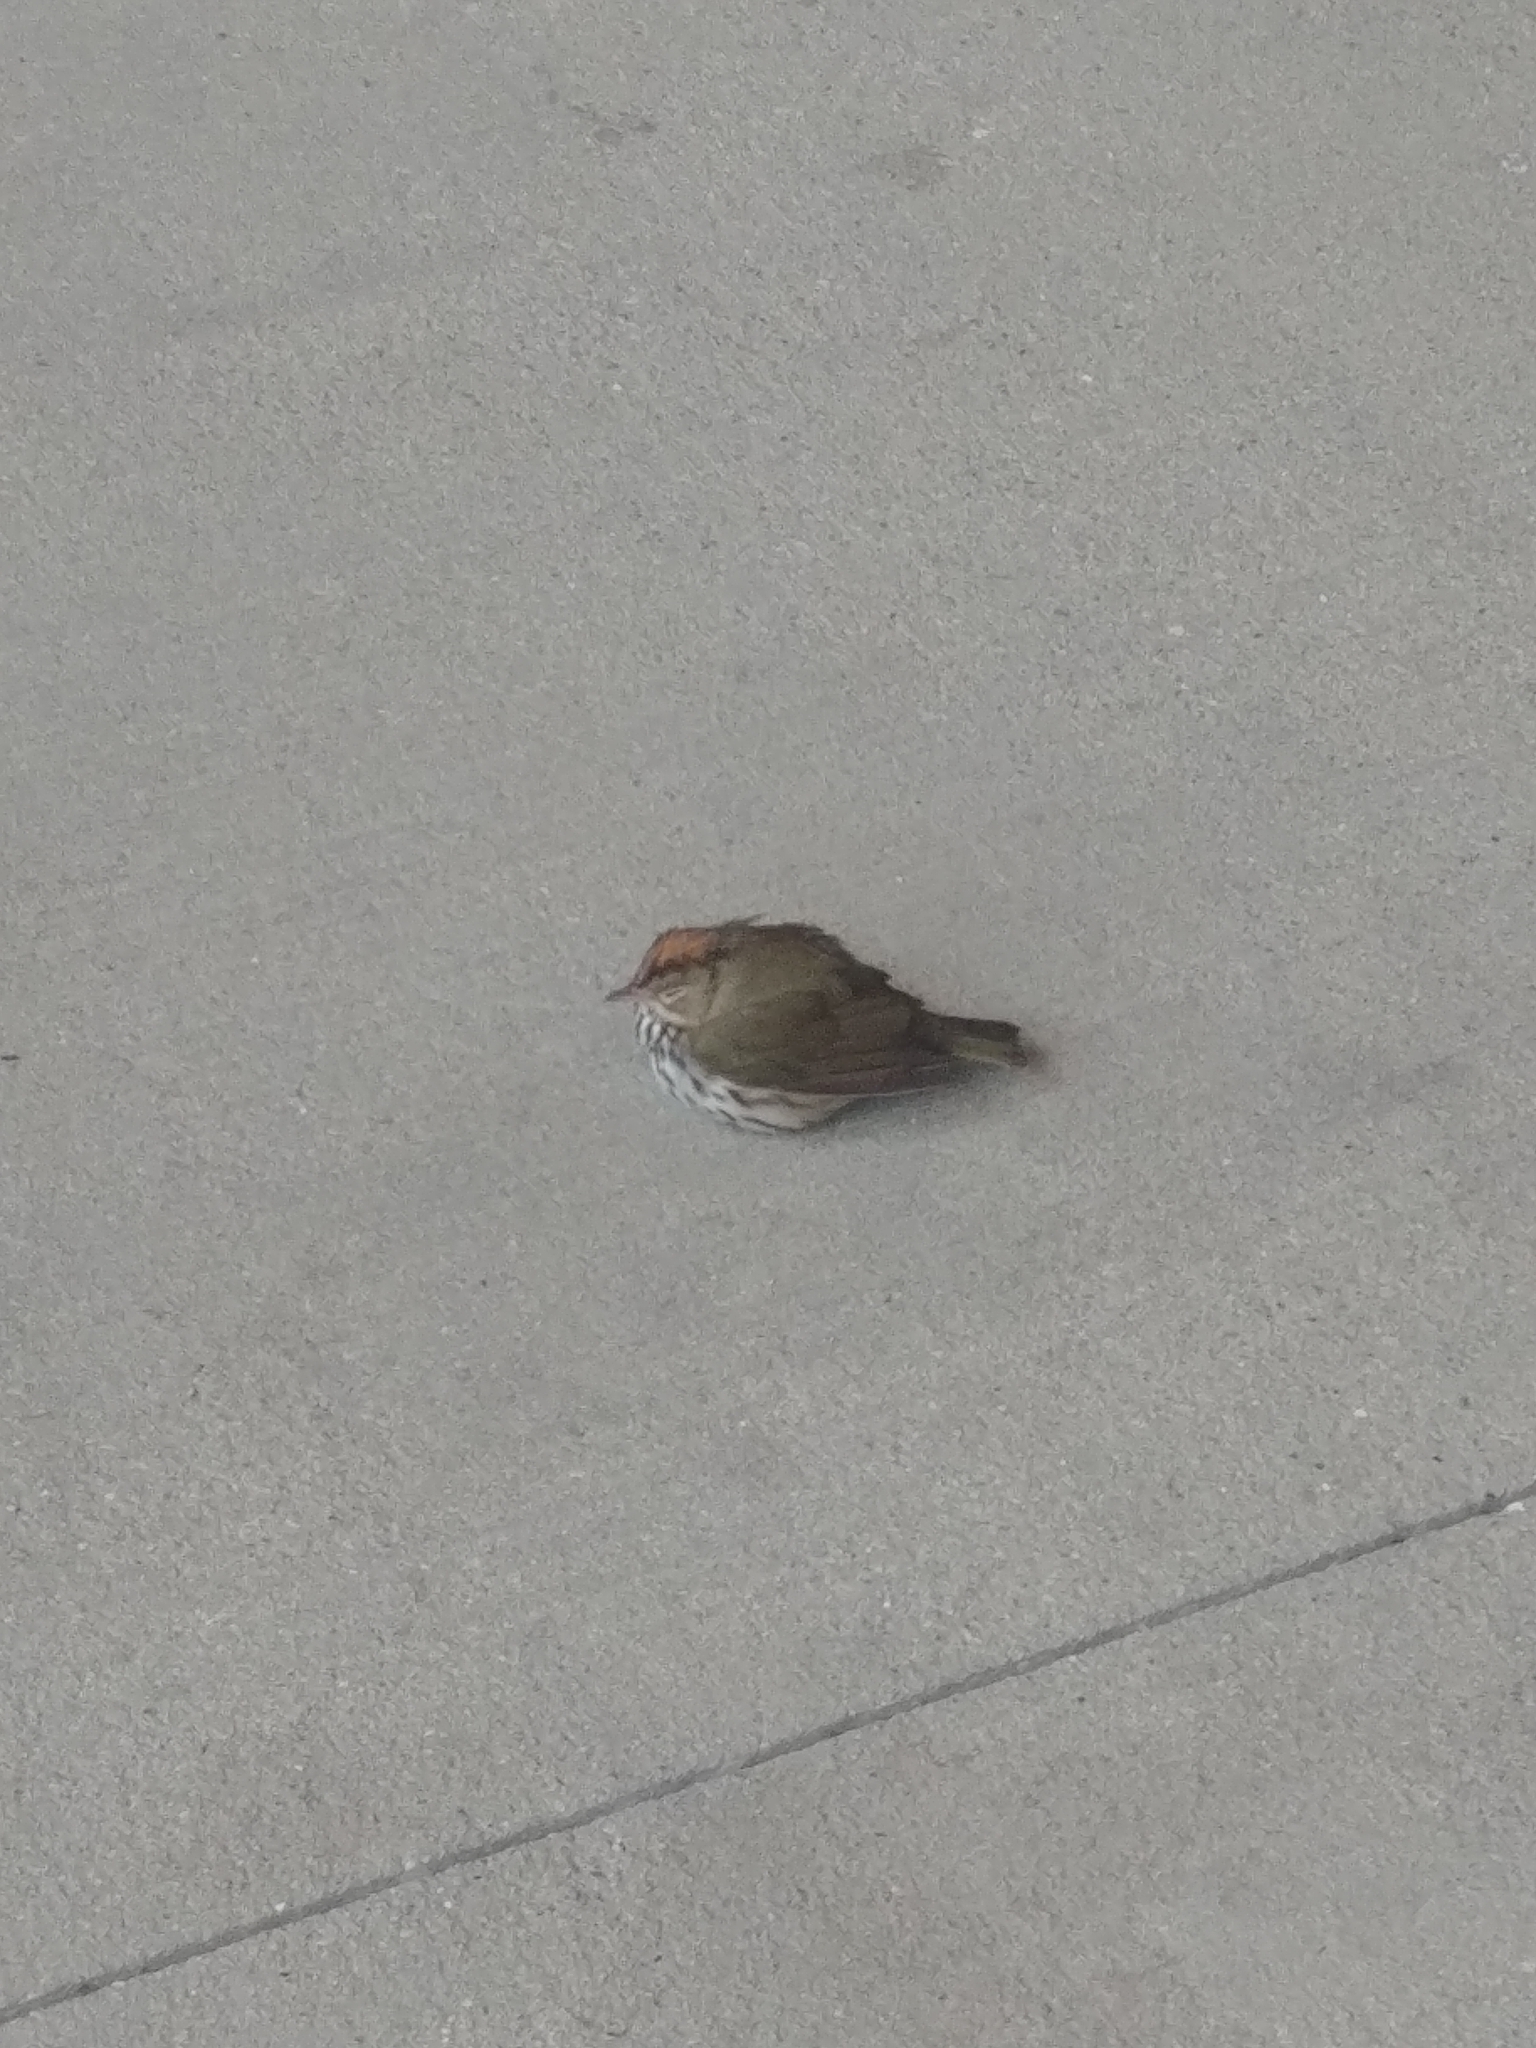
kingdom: Animalia
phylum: Chordata
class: Aves
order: Passeriformes
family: Parulidae
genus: Seiurus
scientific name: Seiurus aurocapilla
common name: Ovenbird
